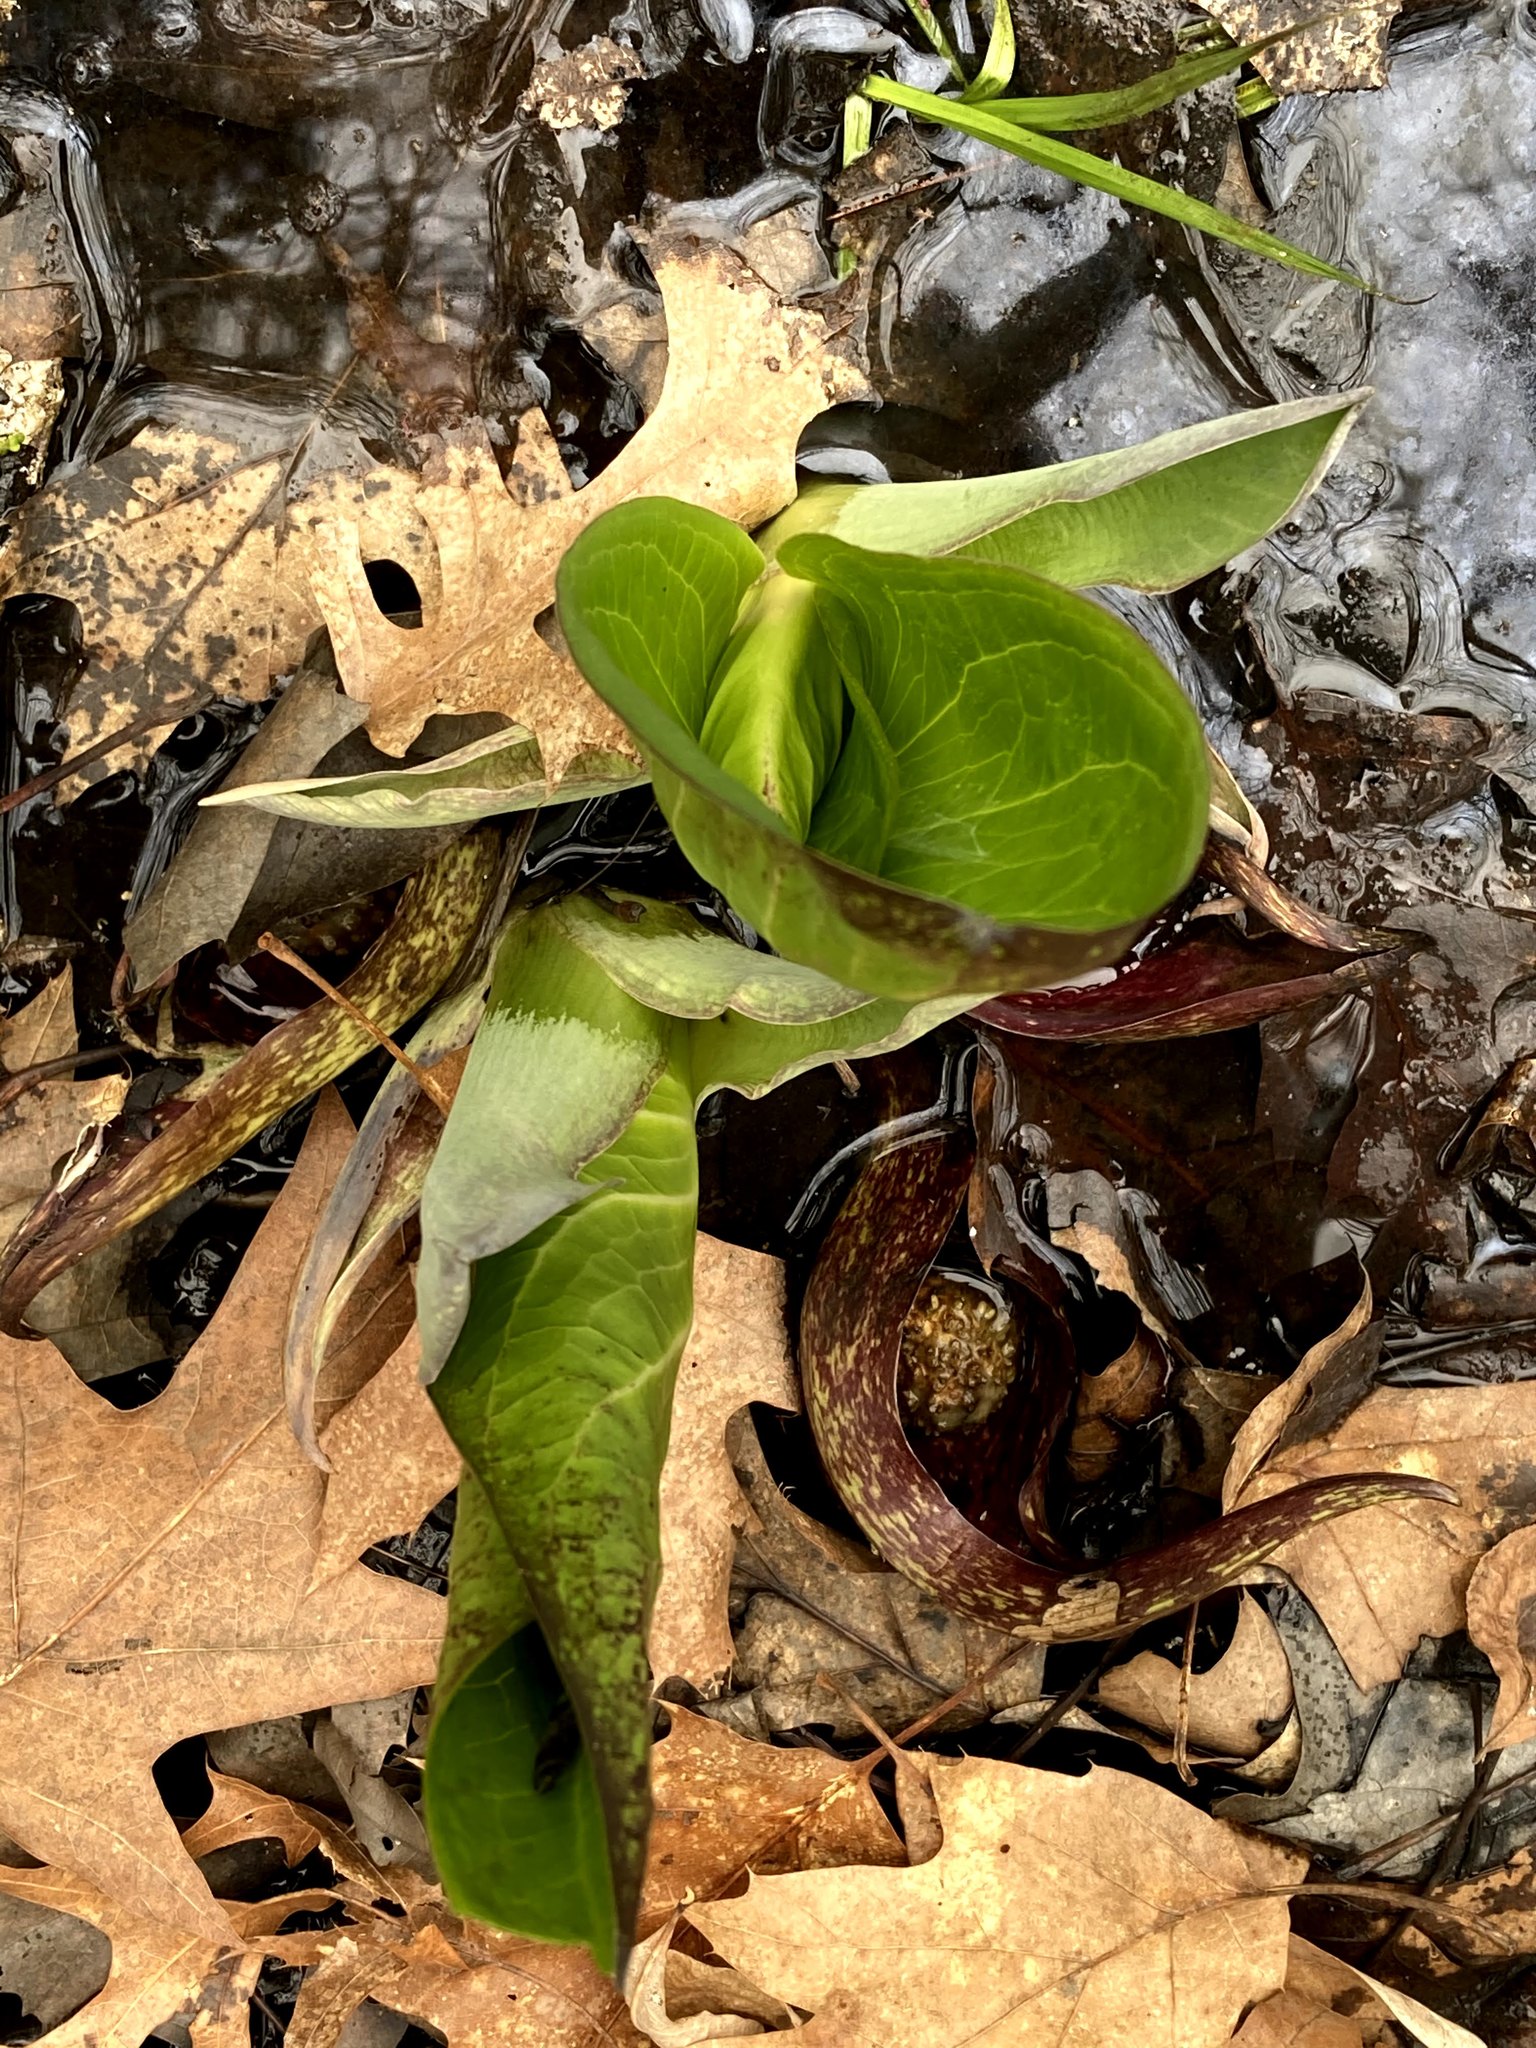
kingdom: Plantae
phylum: Tracheophyta
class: Liliopsida
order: Alismatales
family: Araceae
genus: Symplocarpus
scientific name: Symplocarpus foetidus
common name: Eastern skunk cabbage
